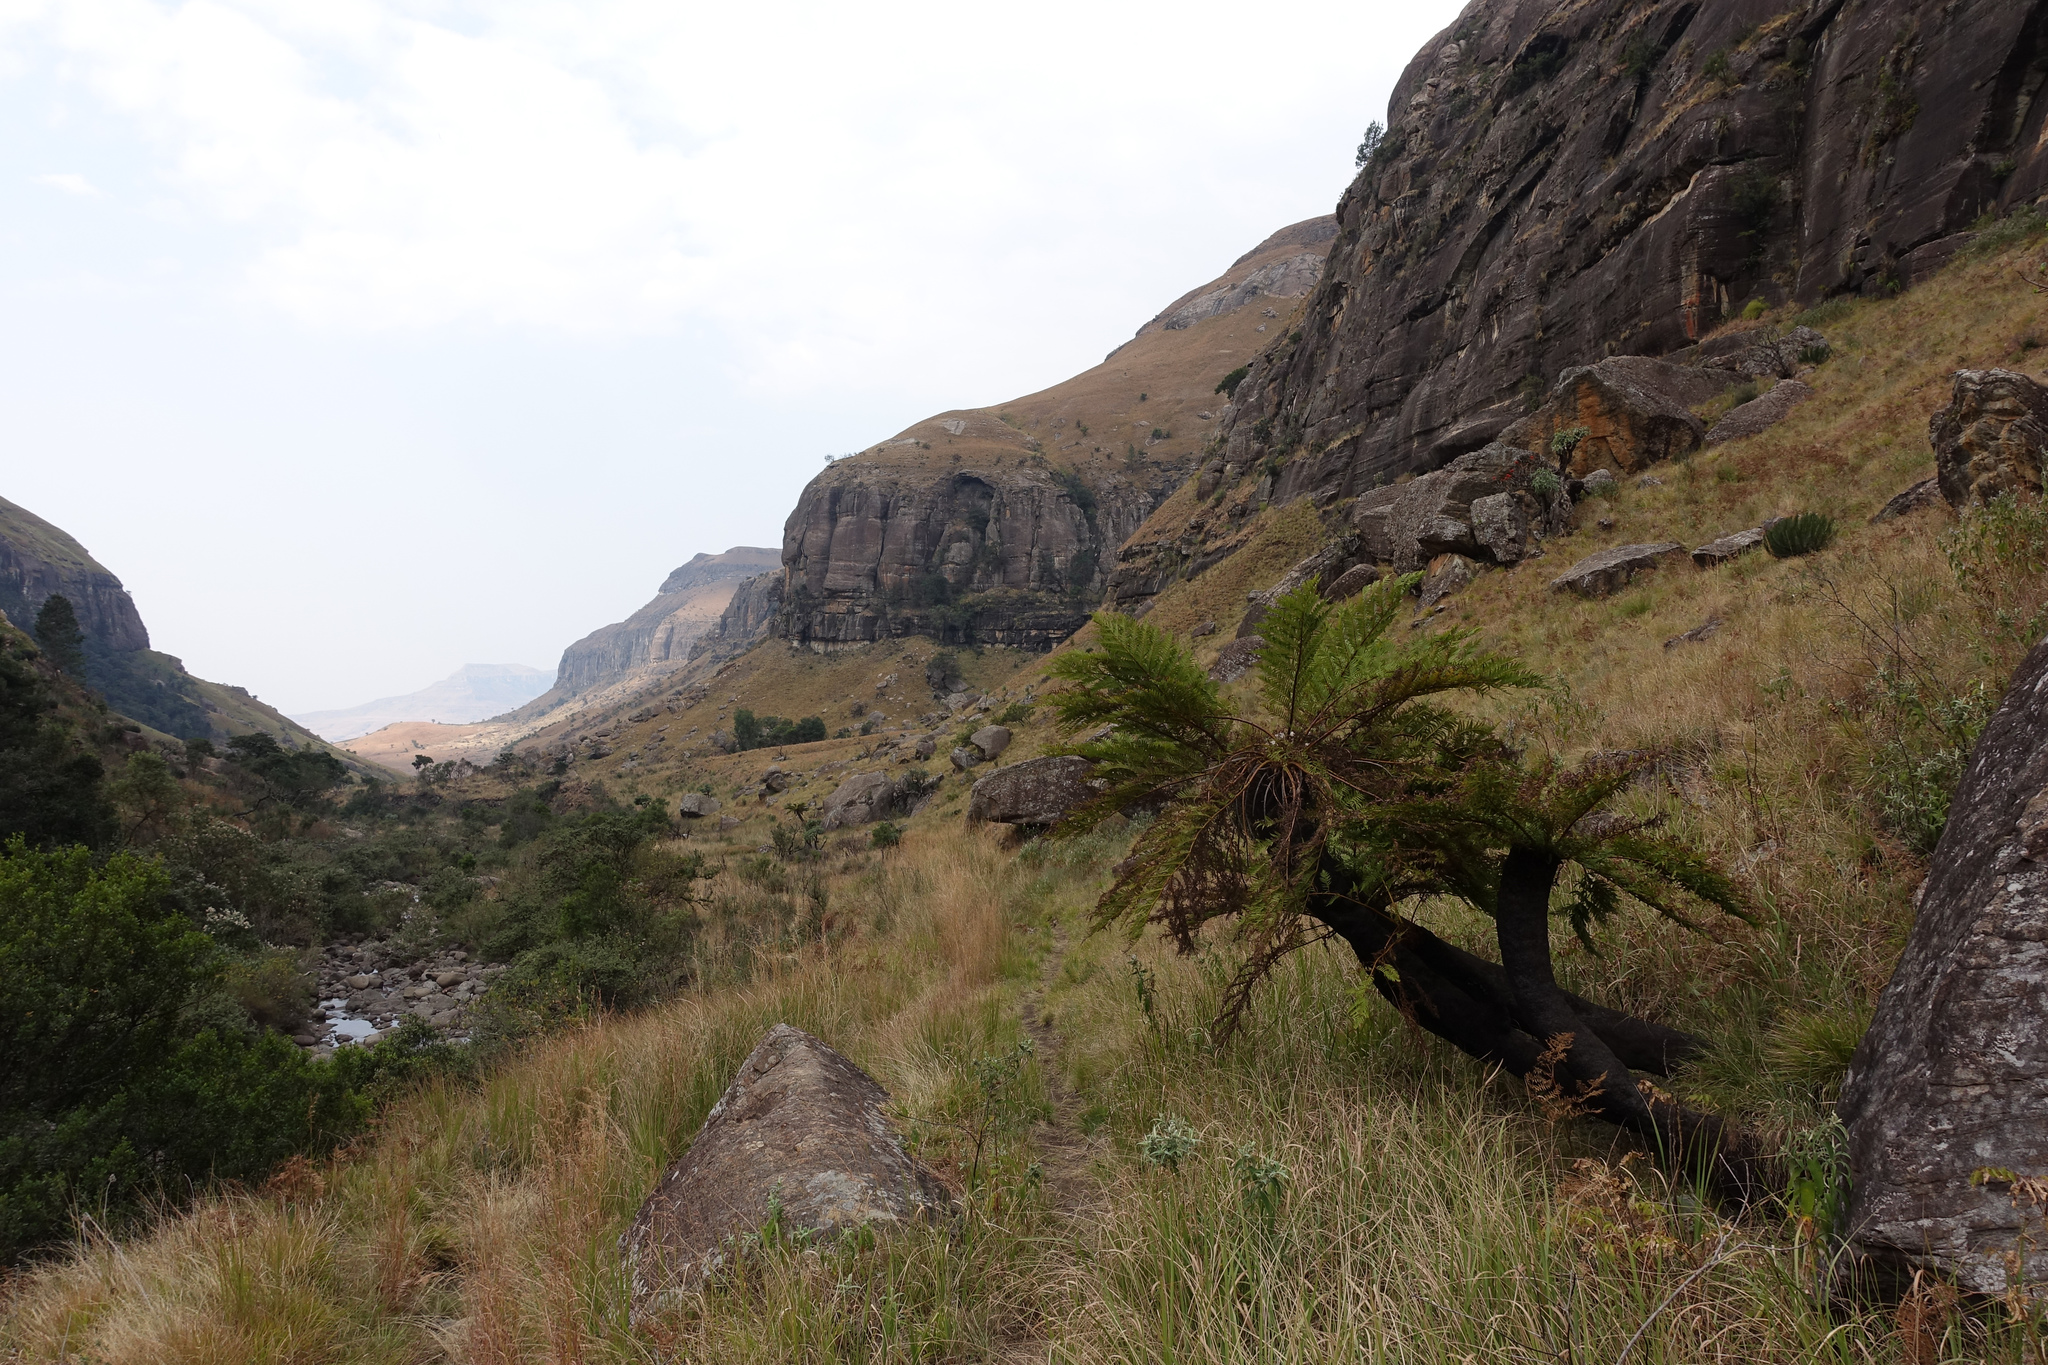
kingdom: Plantae
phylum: Tracheophyta
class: Polypodiopsida
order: Cyatheales
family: Cyatheaceae
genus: Alsophila
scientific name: Alsophila dregei
